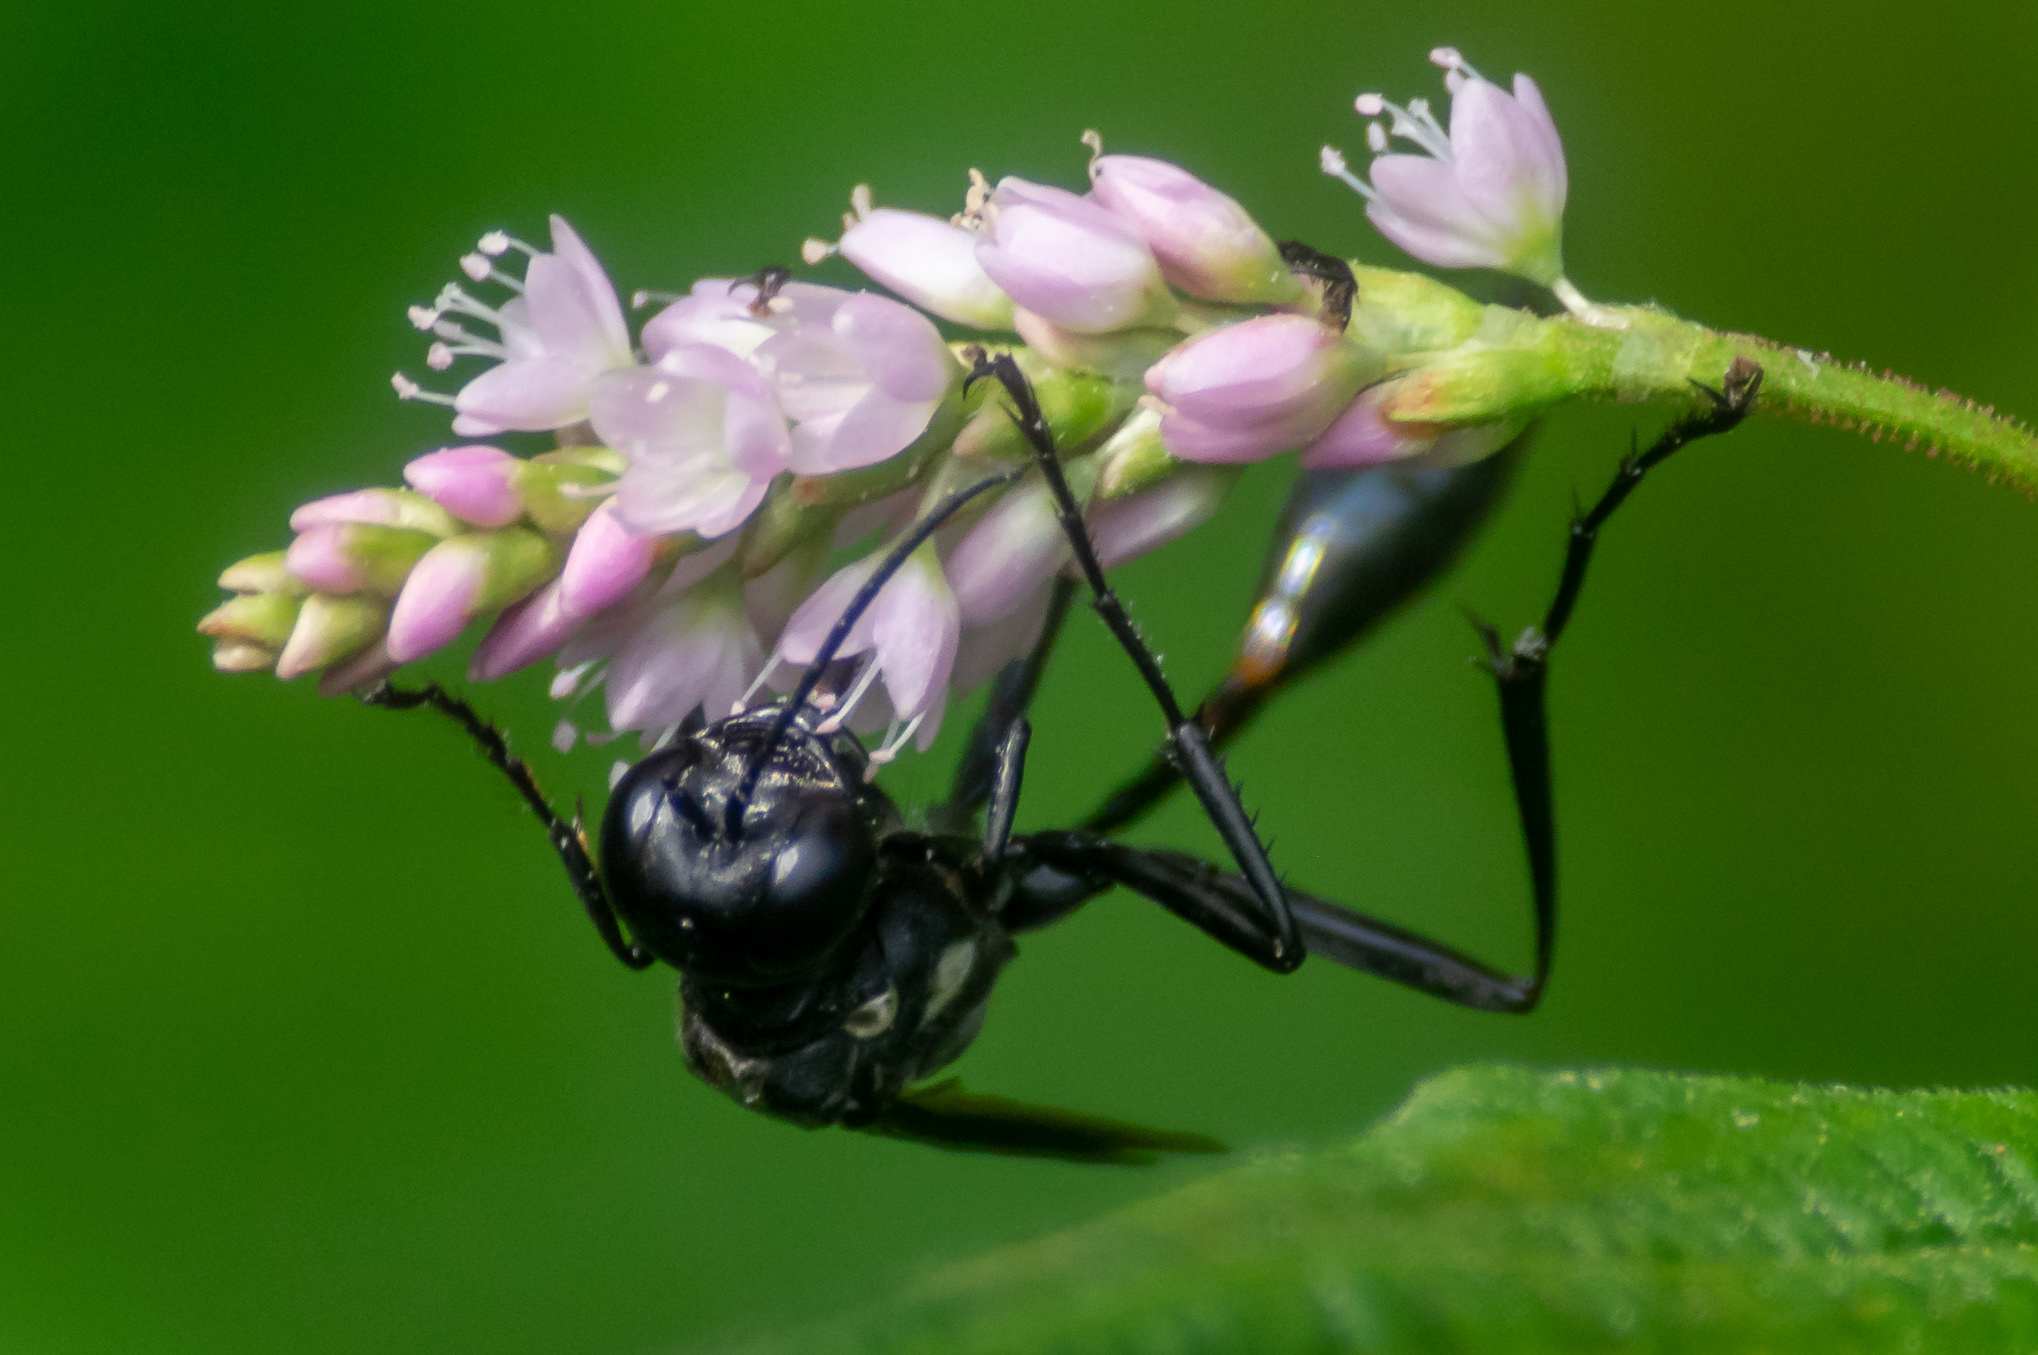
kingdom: Animalia
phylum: Arthropoda
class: Insecta
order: Hymenoptera
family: Sphecidae
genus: Eremnophila
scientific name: Eremnophila aureonotata
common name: Gold-marked thread-waisted wasp
